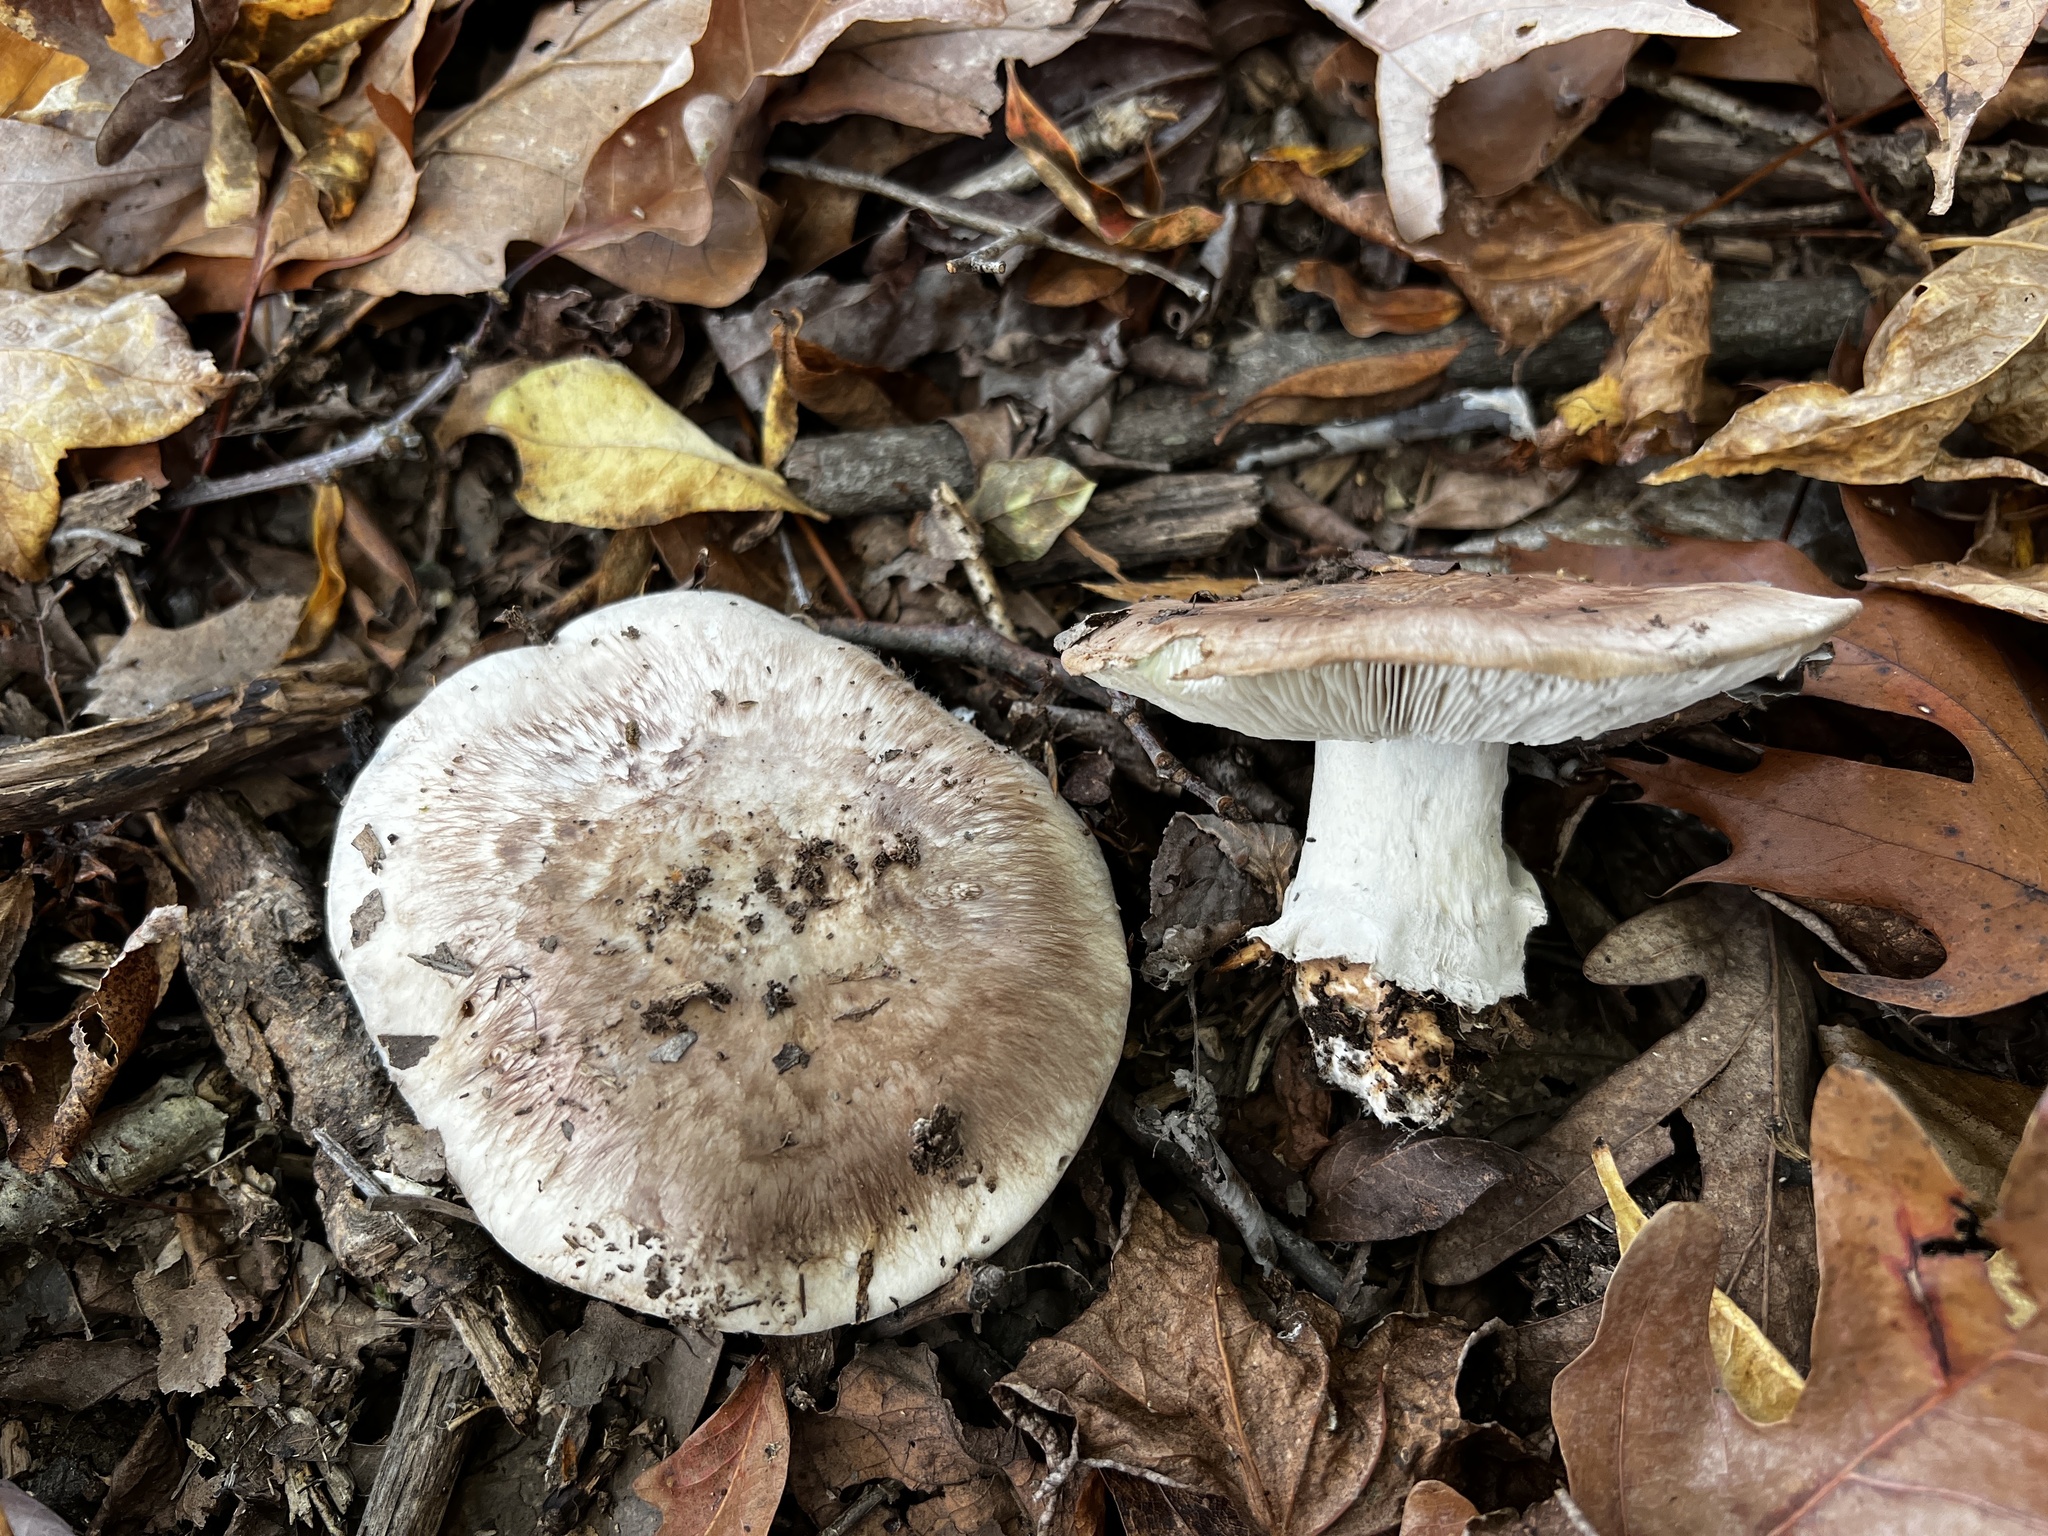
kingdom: Fungi
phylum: Basidiomycota
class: Agaricomycetes
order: Agaricales
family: Tricholomataceae
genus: Tricholoma
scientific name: Tricholoma caligatum
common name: True booted knight
